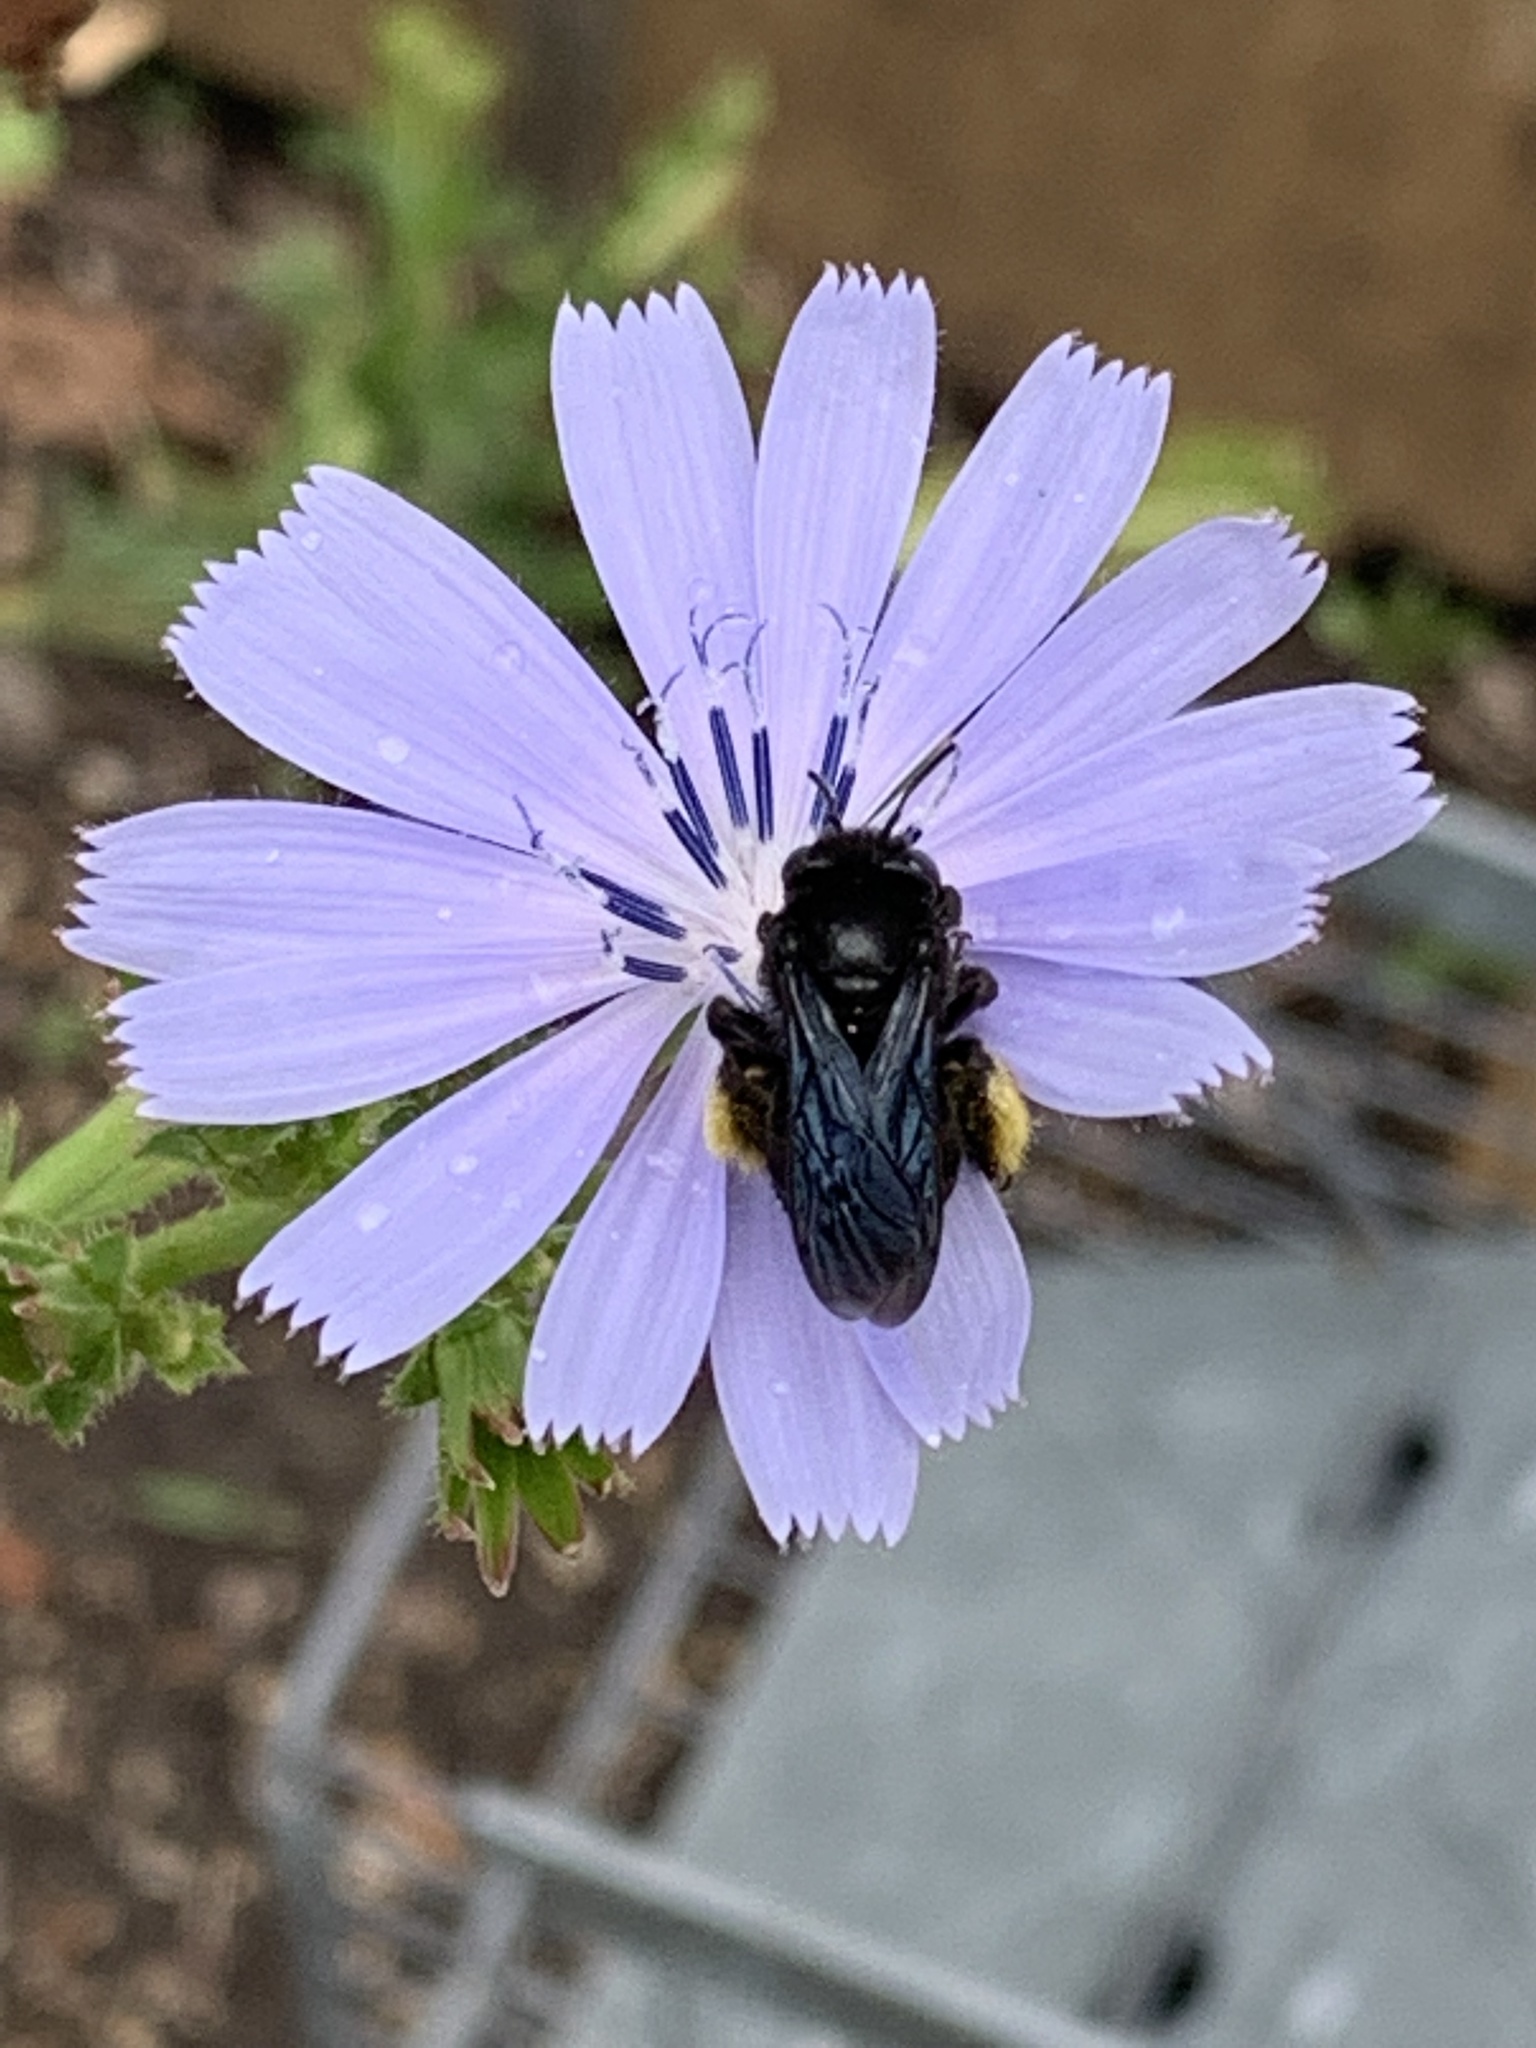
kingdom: Animalia
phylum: Arthropoda
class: Insecta
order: Hymenoptera
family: Apidae
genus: Melissodes
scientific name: Melissodes bimaculatus
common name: Two-spotted long-horned bee
